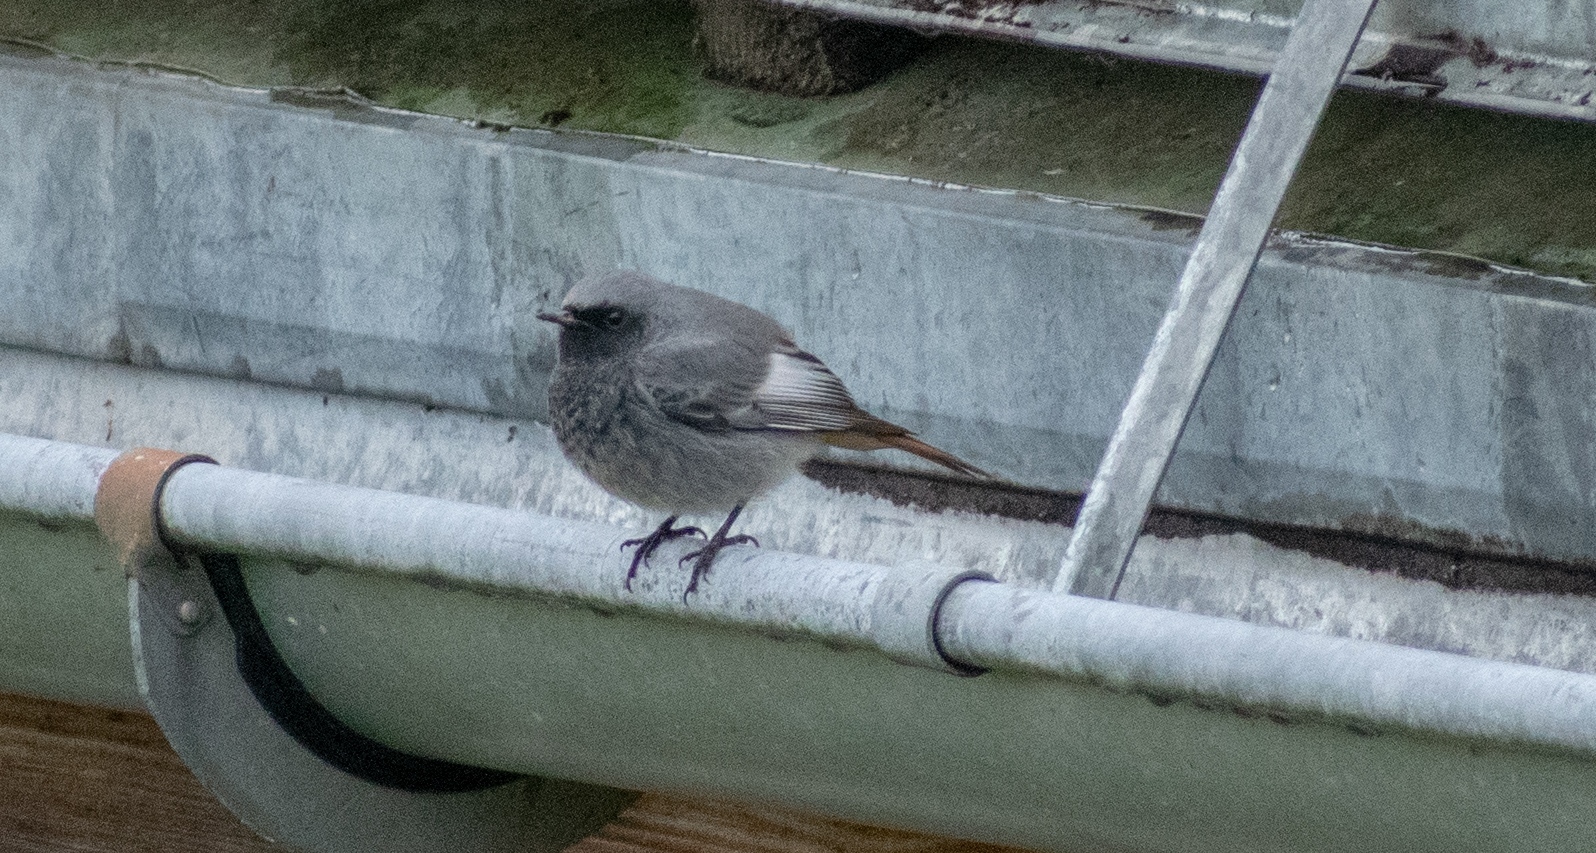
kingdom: Animalia
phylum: Chordata
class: Aves
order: Passeriformes
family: Muscicapidae
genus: Phoenicurus
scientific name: Phoenicurus ochruros
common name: Black redstart
